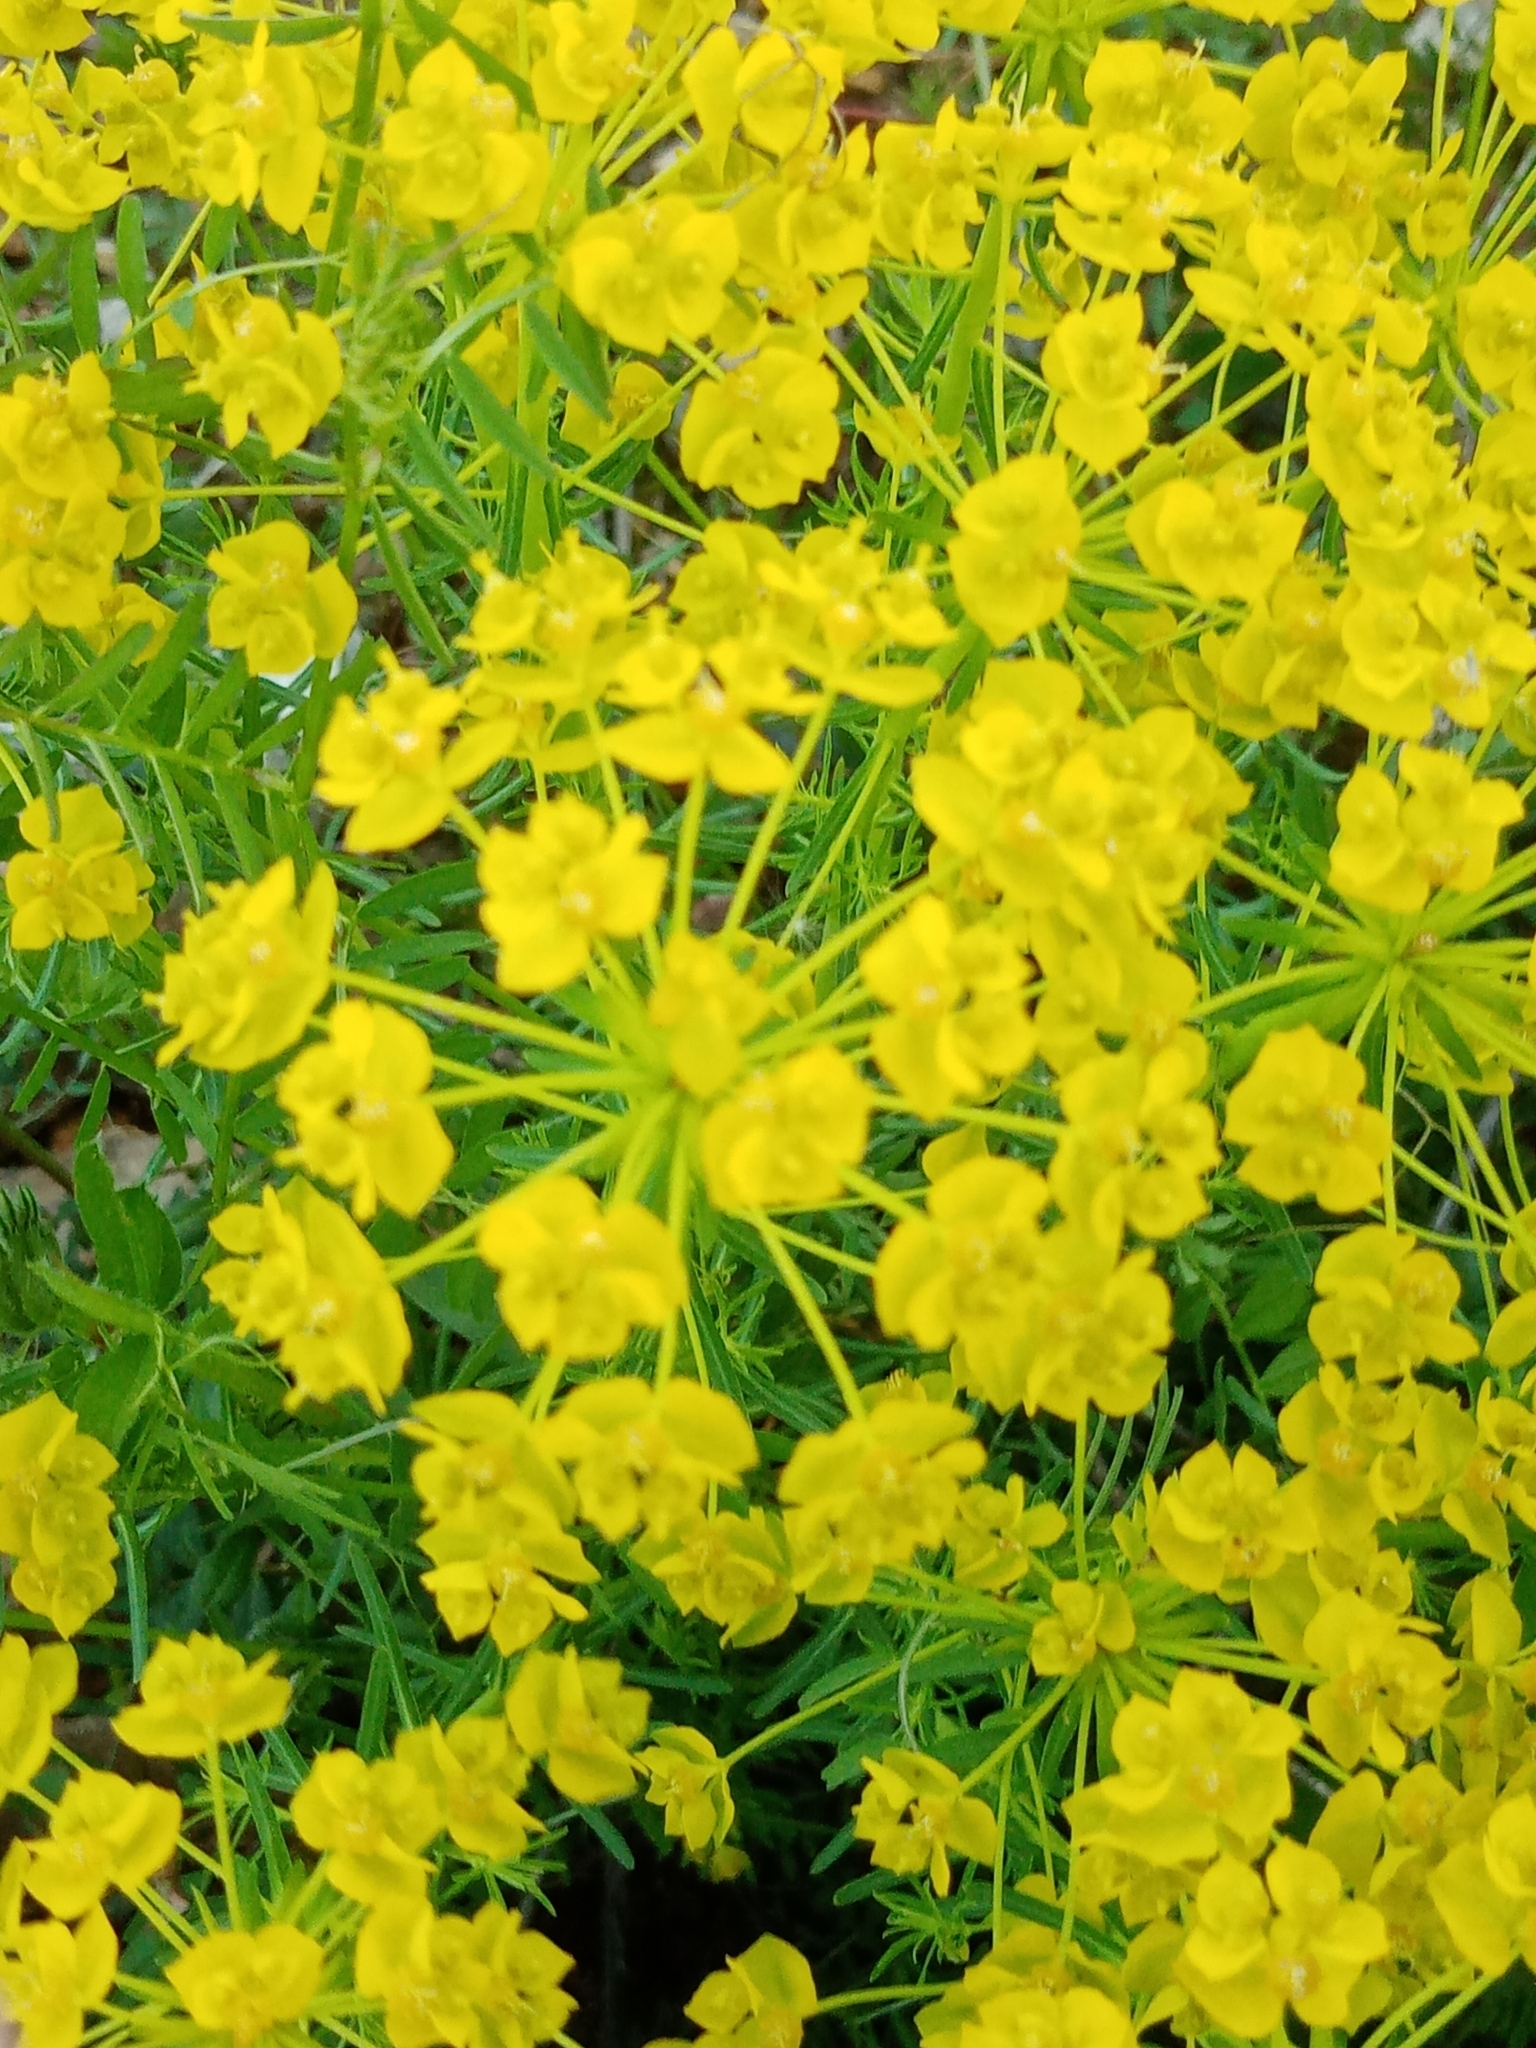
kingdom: Plantae
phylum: Tracheophyta
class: Magnoliopsida
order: Malpighiales
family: Euphorbiaceae
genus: Euphorbia
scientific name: Euphorbia cyparissias
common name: Cypress spurge
